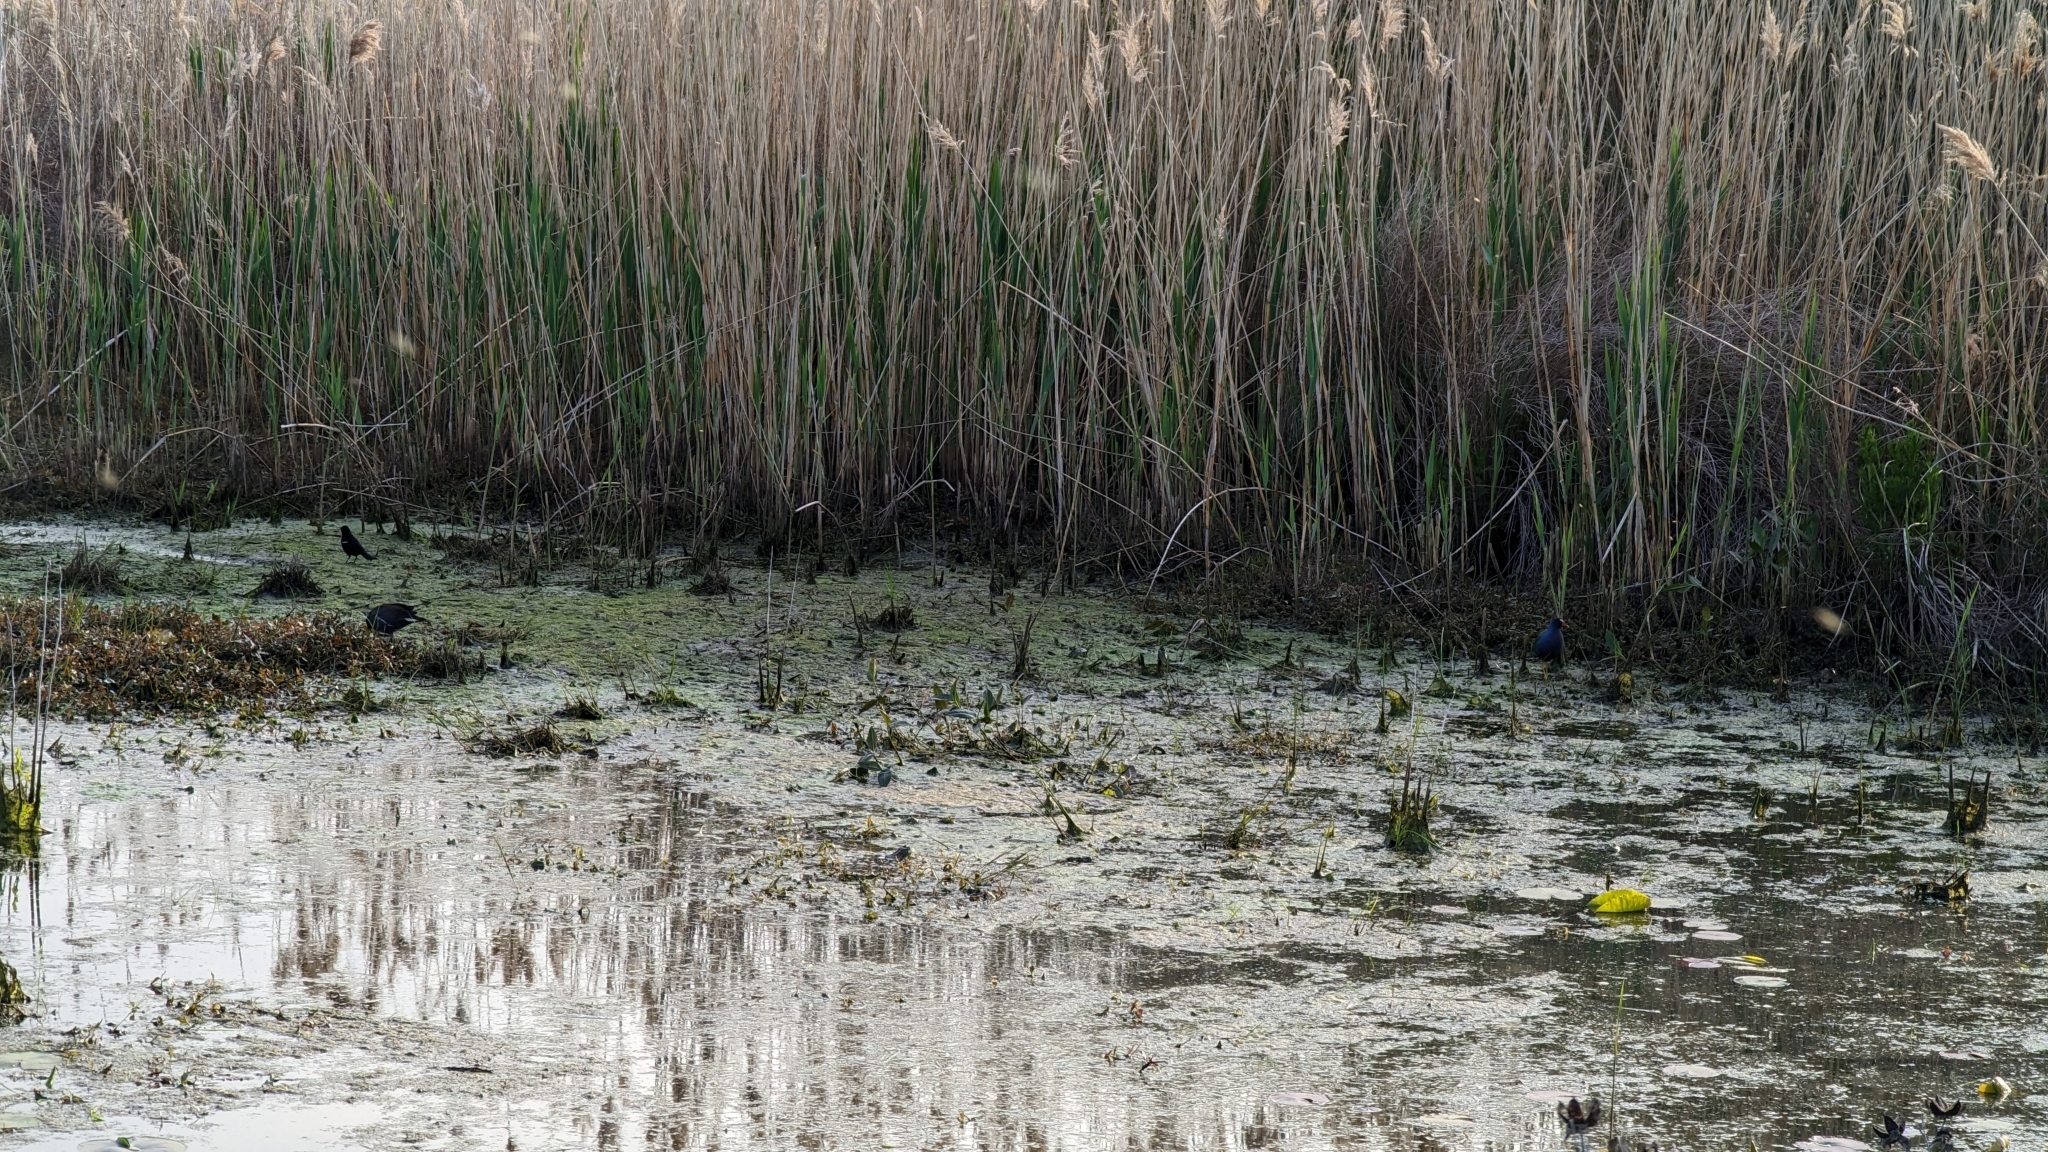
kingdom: Animalia
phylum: Chordata
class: Aves
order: Gruiformes
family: Rallidae
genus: Gallinula
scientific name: Gallinula chloropus
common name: Common moorhen
